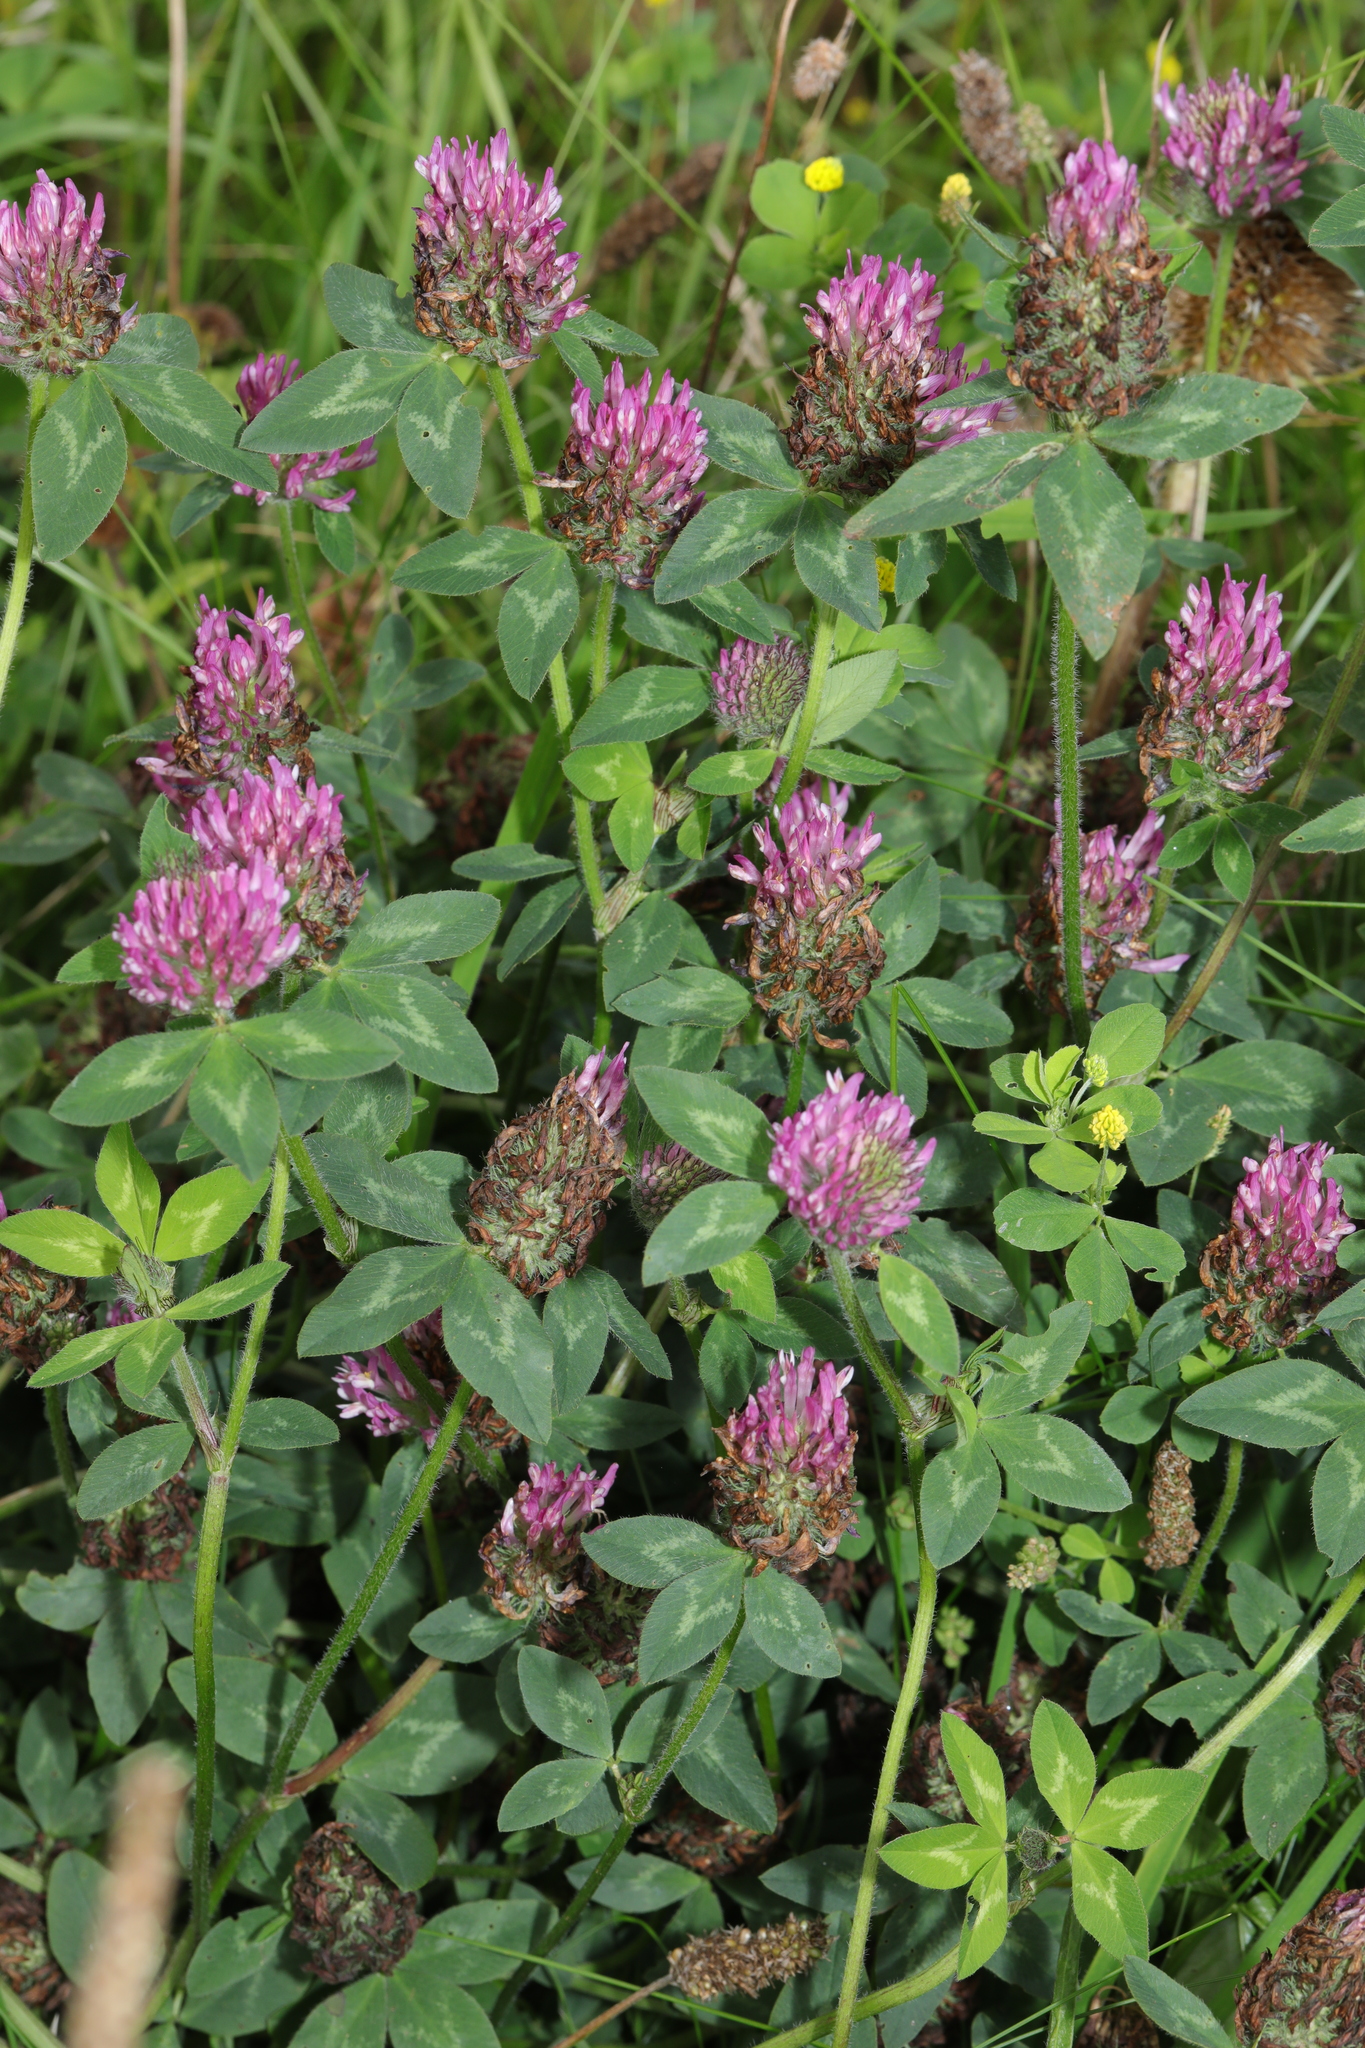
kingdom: Plantae
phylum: Tracheophyta
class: Magnoliopsida
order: Fabales
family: Fabaceae
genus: Trifolium
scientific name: Trifolium pratense
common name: Red clover
